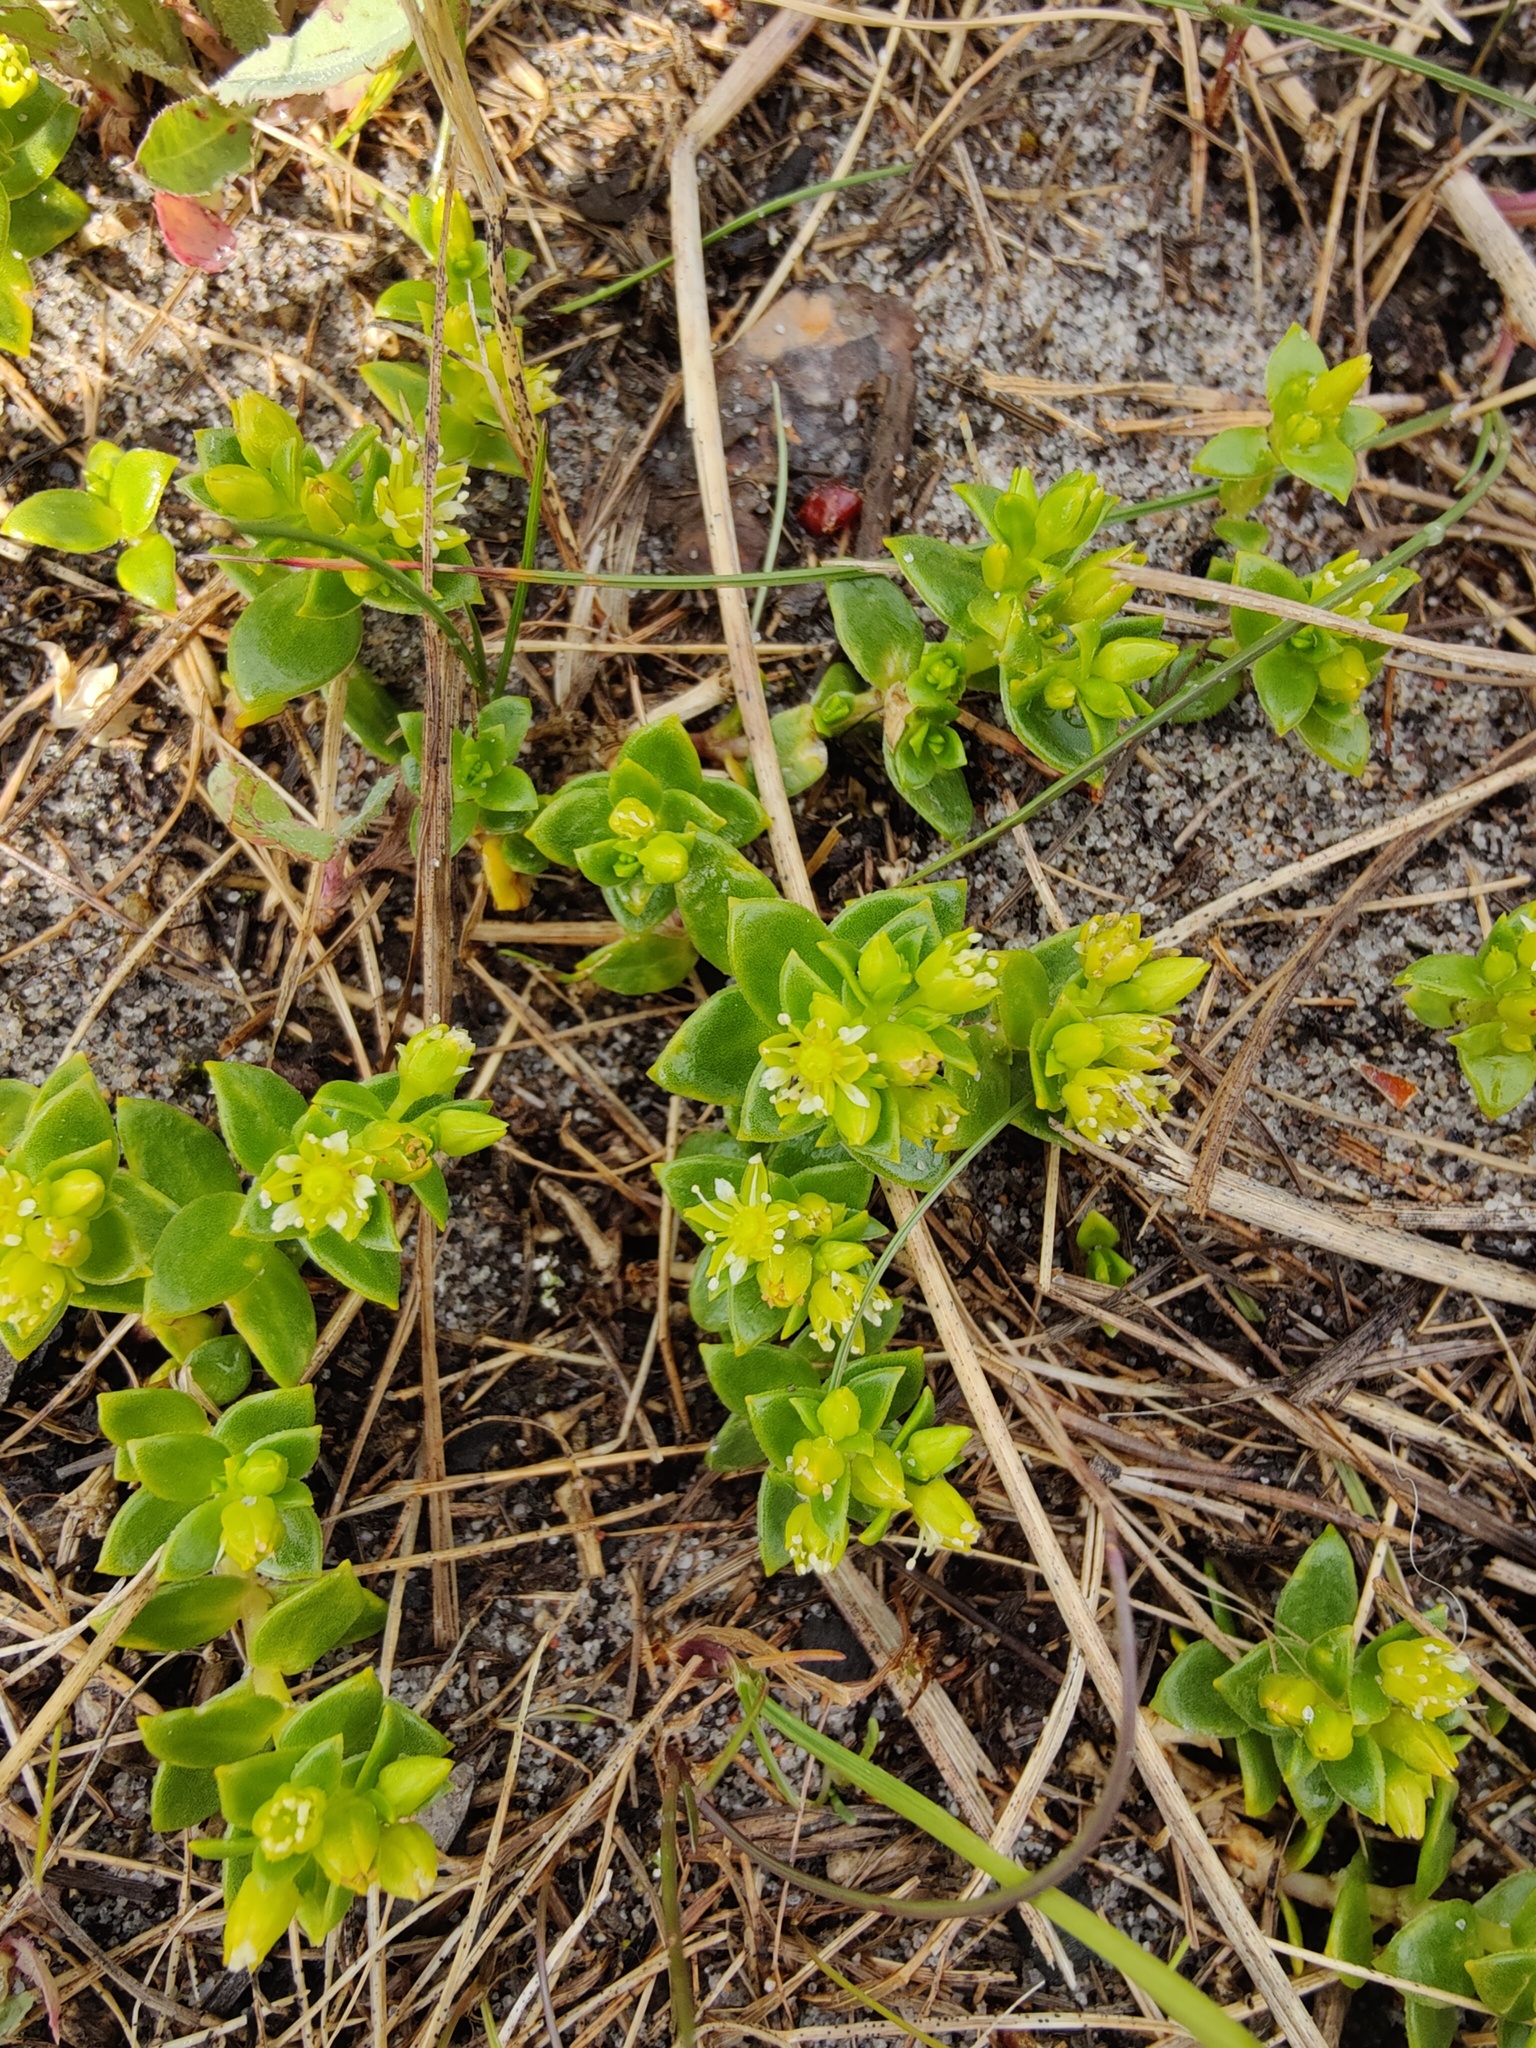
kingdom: Plantae
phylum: Tracheophyta
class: Magnoliopsida
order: Caryophyllales
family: Caryophyllaceae
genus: Honckenya
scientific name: Honckenya peploides
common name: Sea sandwort
